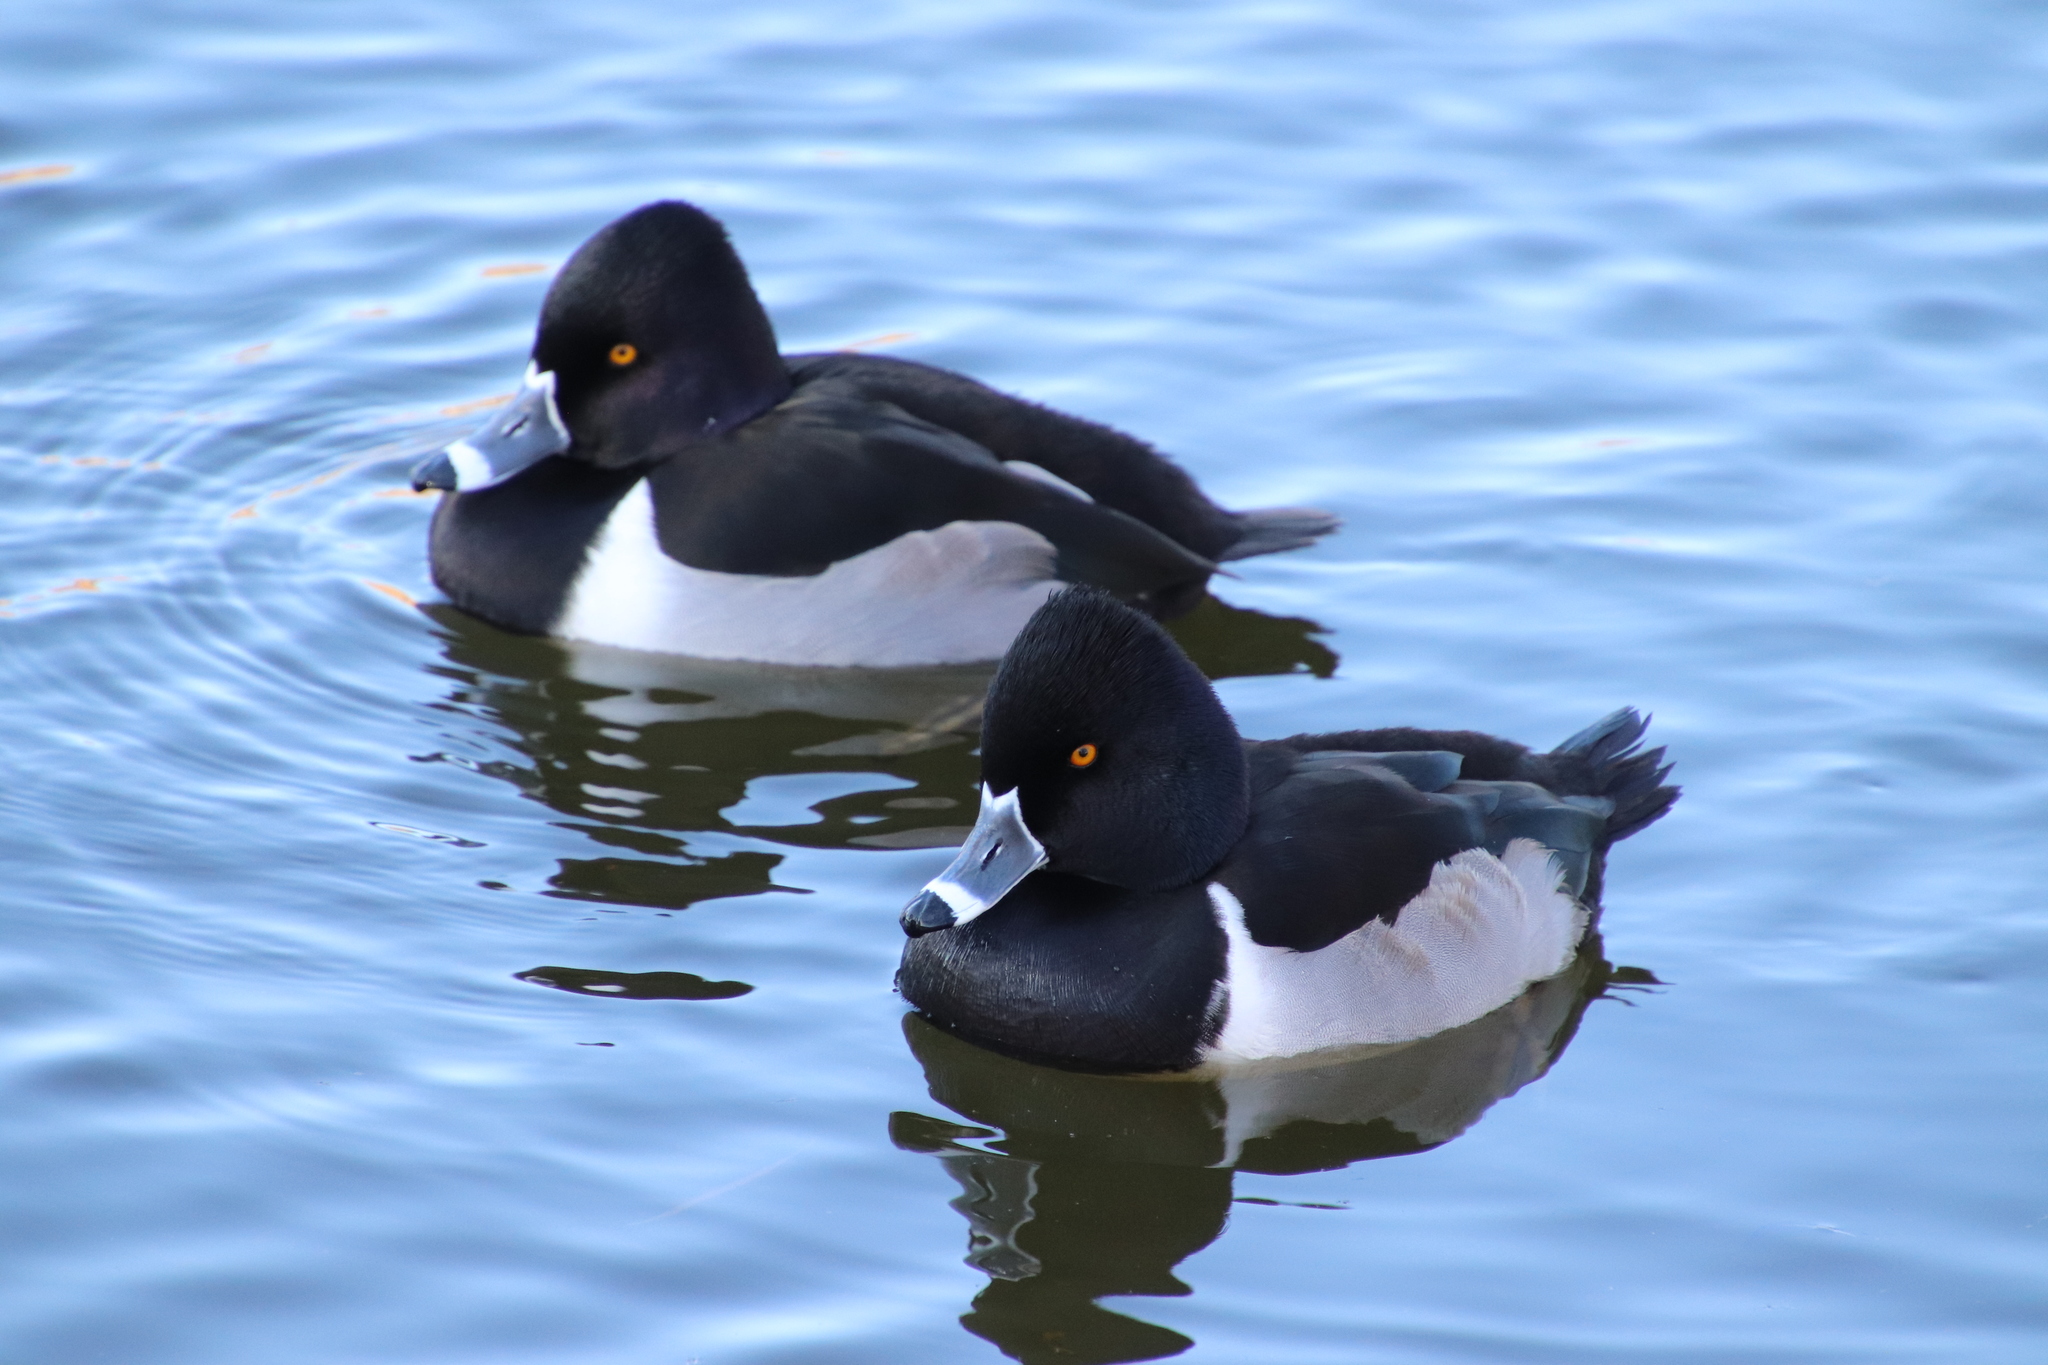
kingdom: Animalia
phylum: Chordata
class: Aves
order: Anseriformes
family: Anatidae
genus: Aythya
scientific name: Aythya collaris
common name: Ring-necked duck
